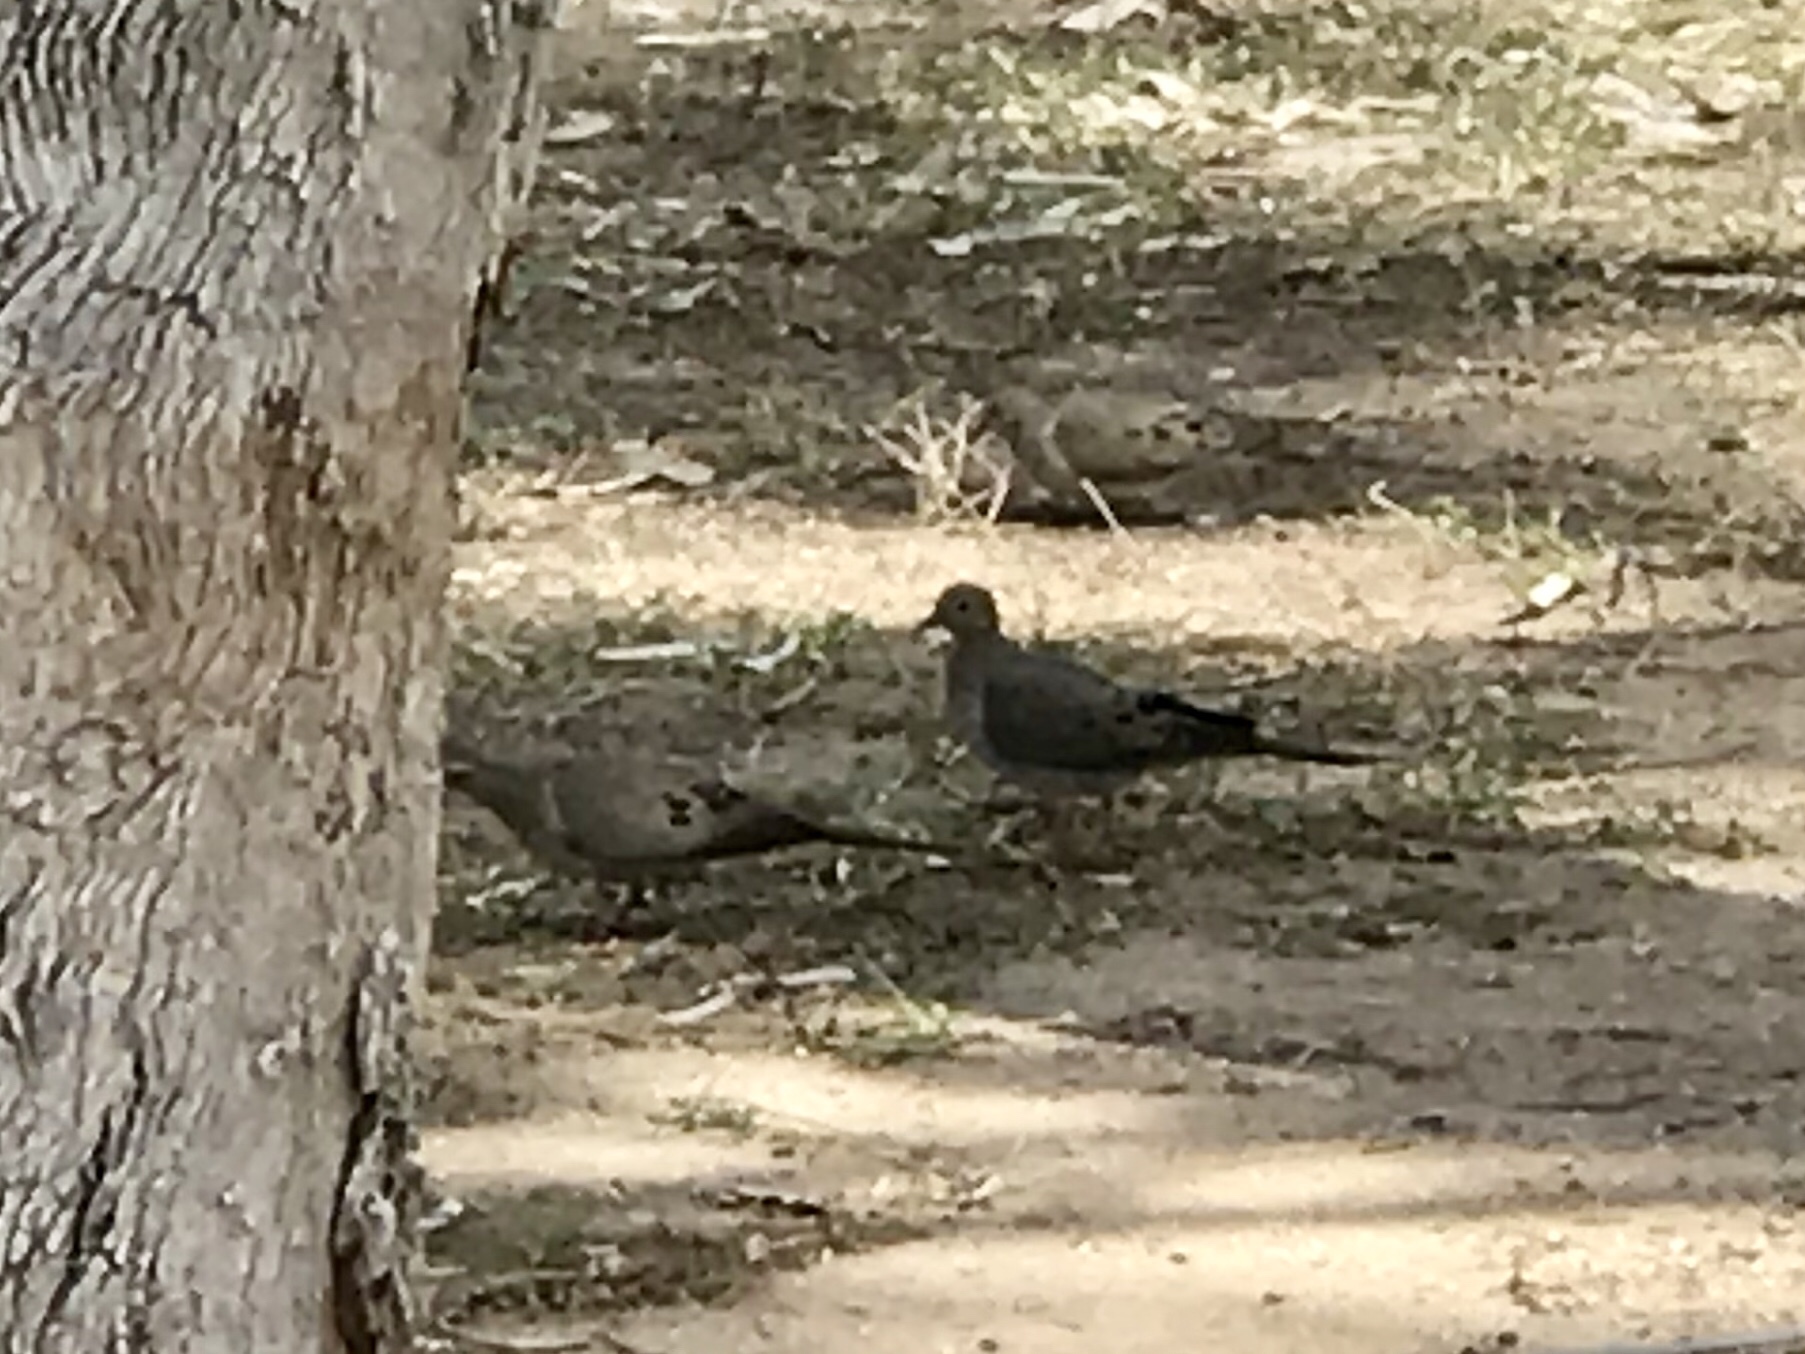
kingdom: Animalia
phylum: Chordata
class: Aves
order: Columbiformes
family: Columbidae
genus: Zenaida
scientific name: Zenaida macroura
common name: Mourning dove
